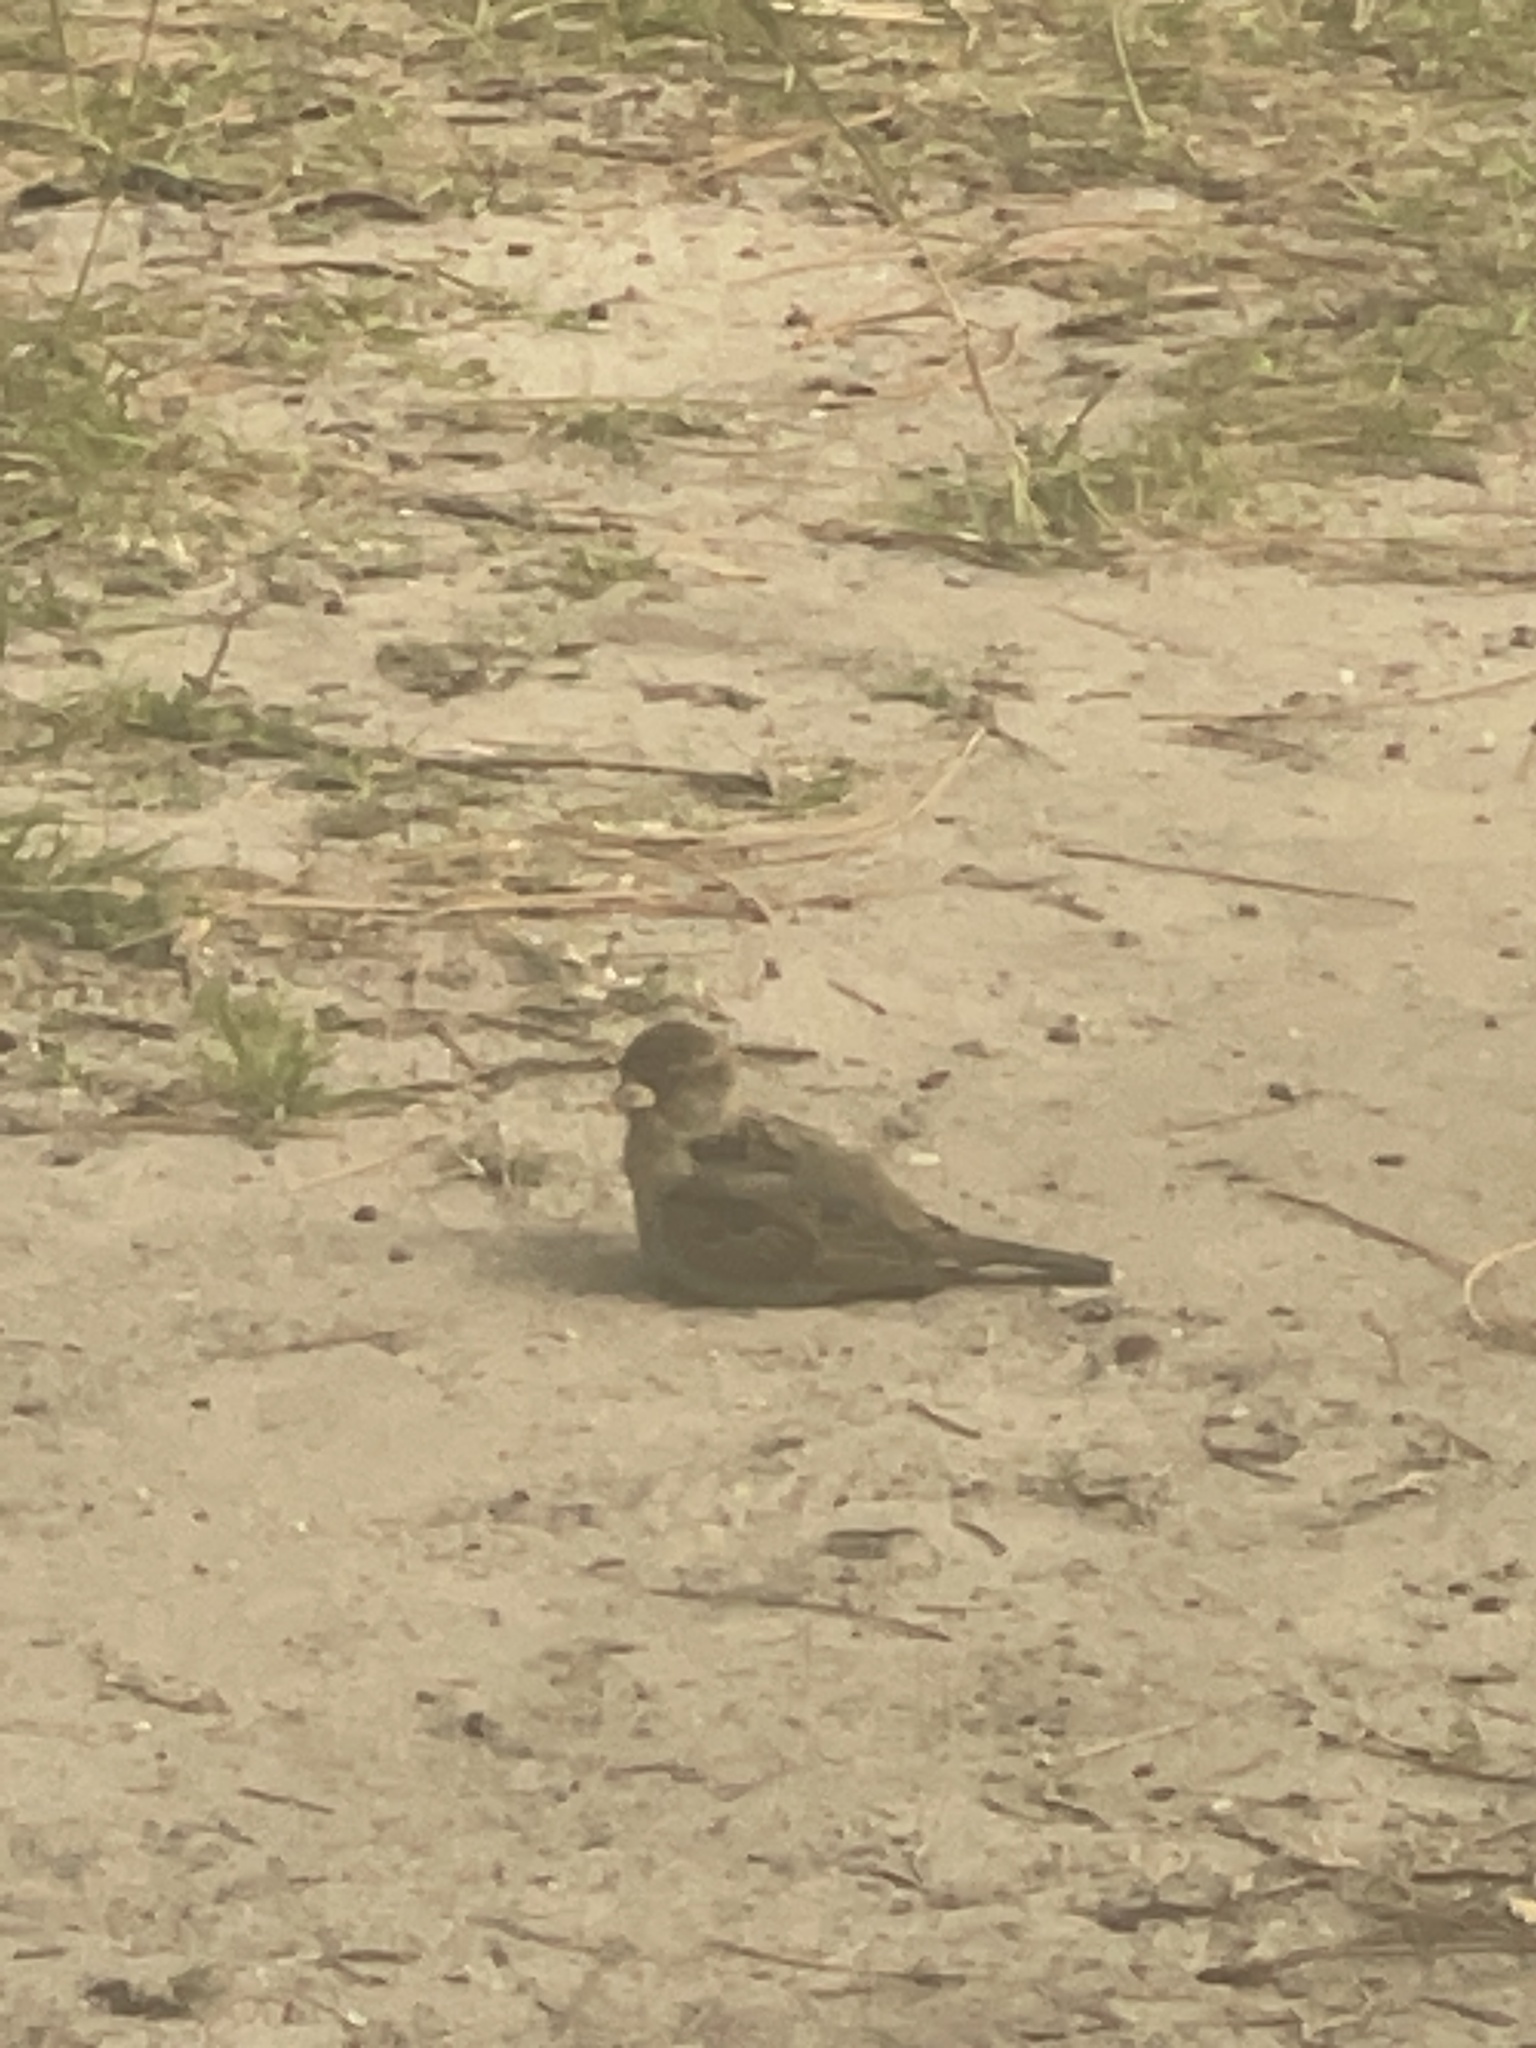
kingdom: Animalia
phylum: Chordata
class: Aves
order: Passeriformes
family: Passeridae
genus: Passer
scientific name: Passer domesticus
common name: House sparrow
